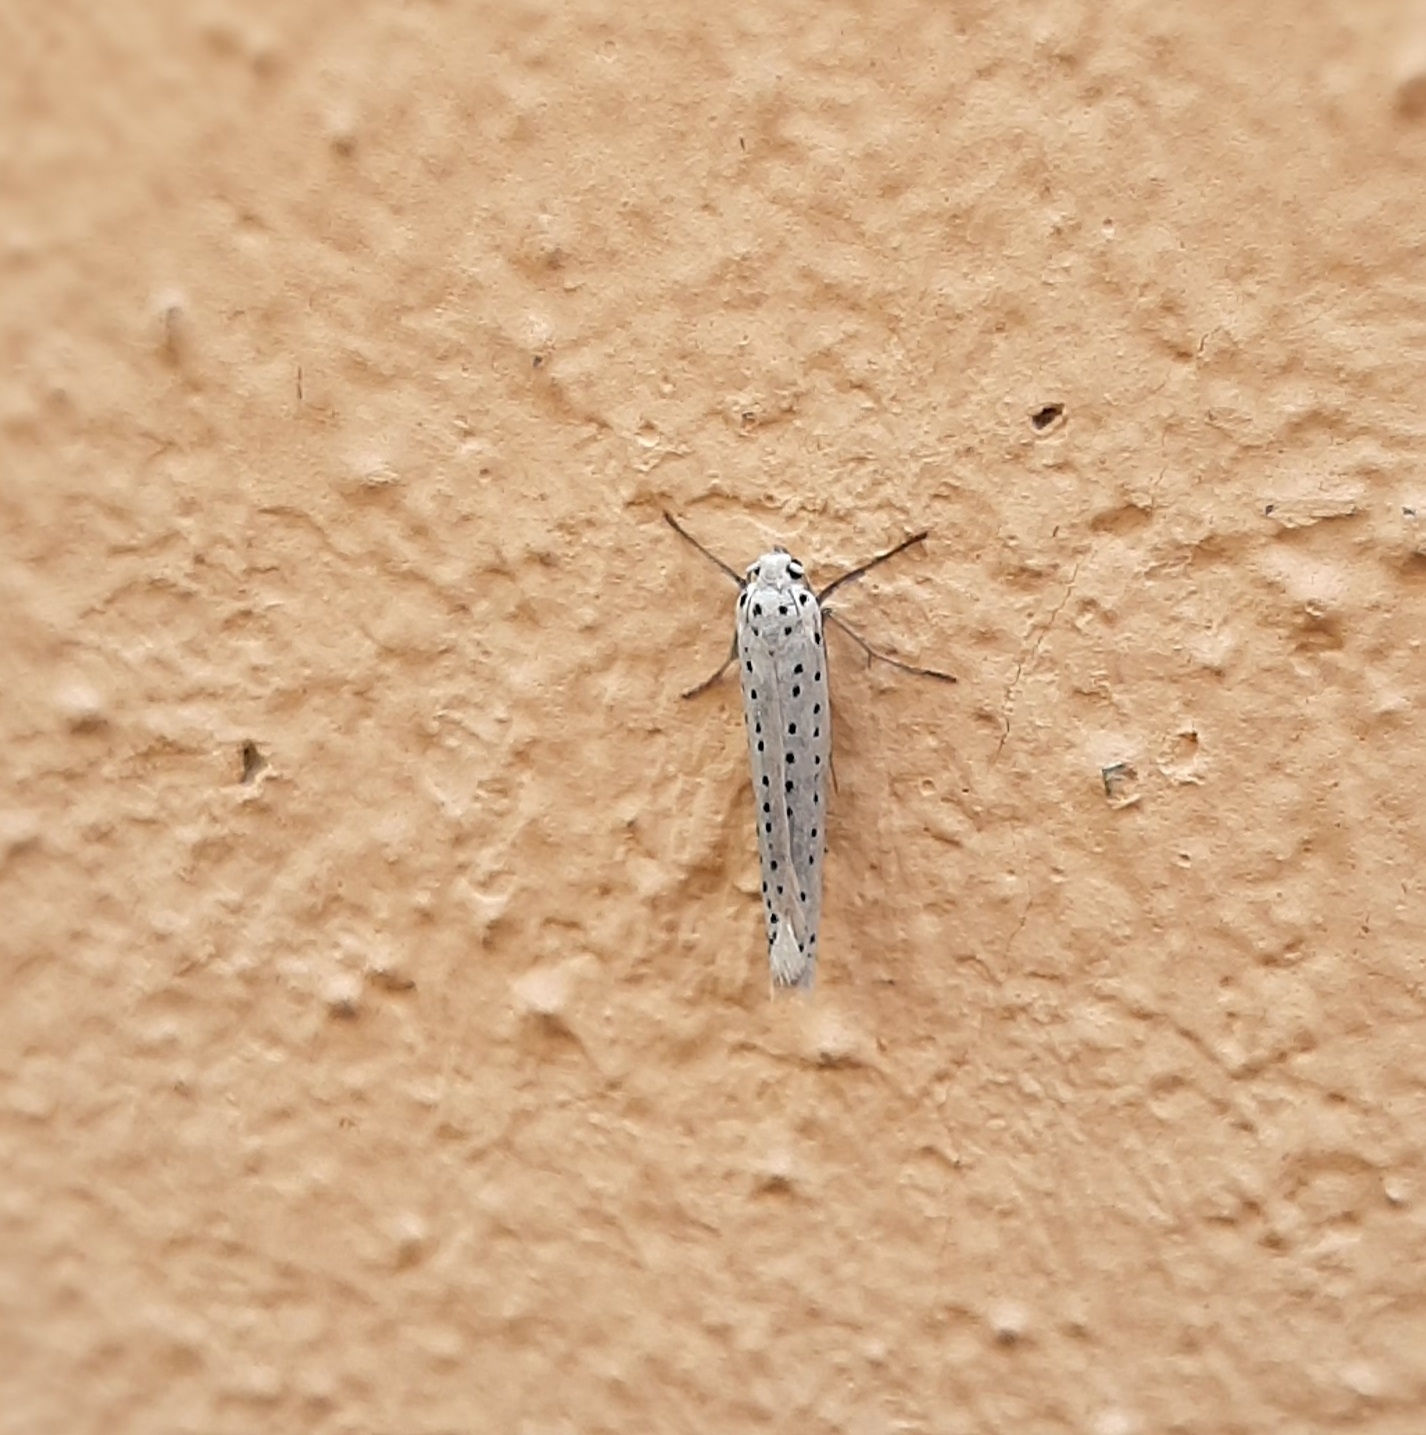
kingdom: Animalia
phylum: Arthropoda
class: Insecta
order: Lepidoptera
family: Yponomeutidae
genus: Yponomeuta
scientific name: Yponomeuta evonymella
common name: Bird-cherry ermine
